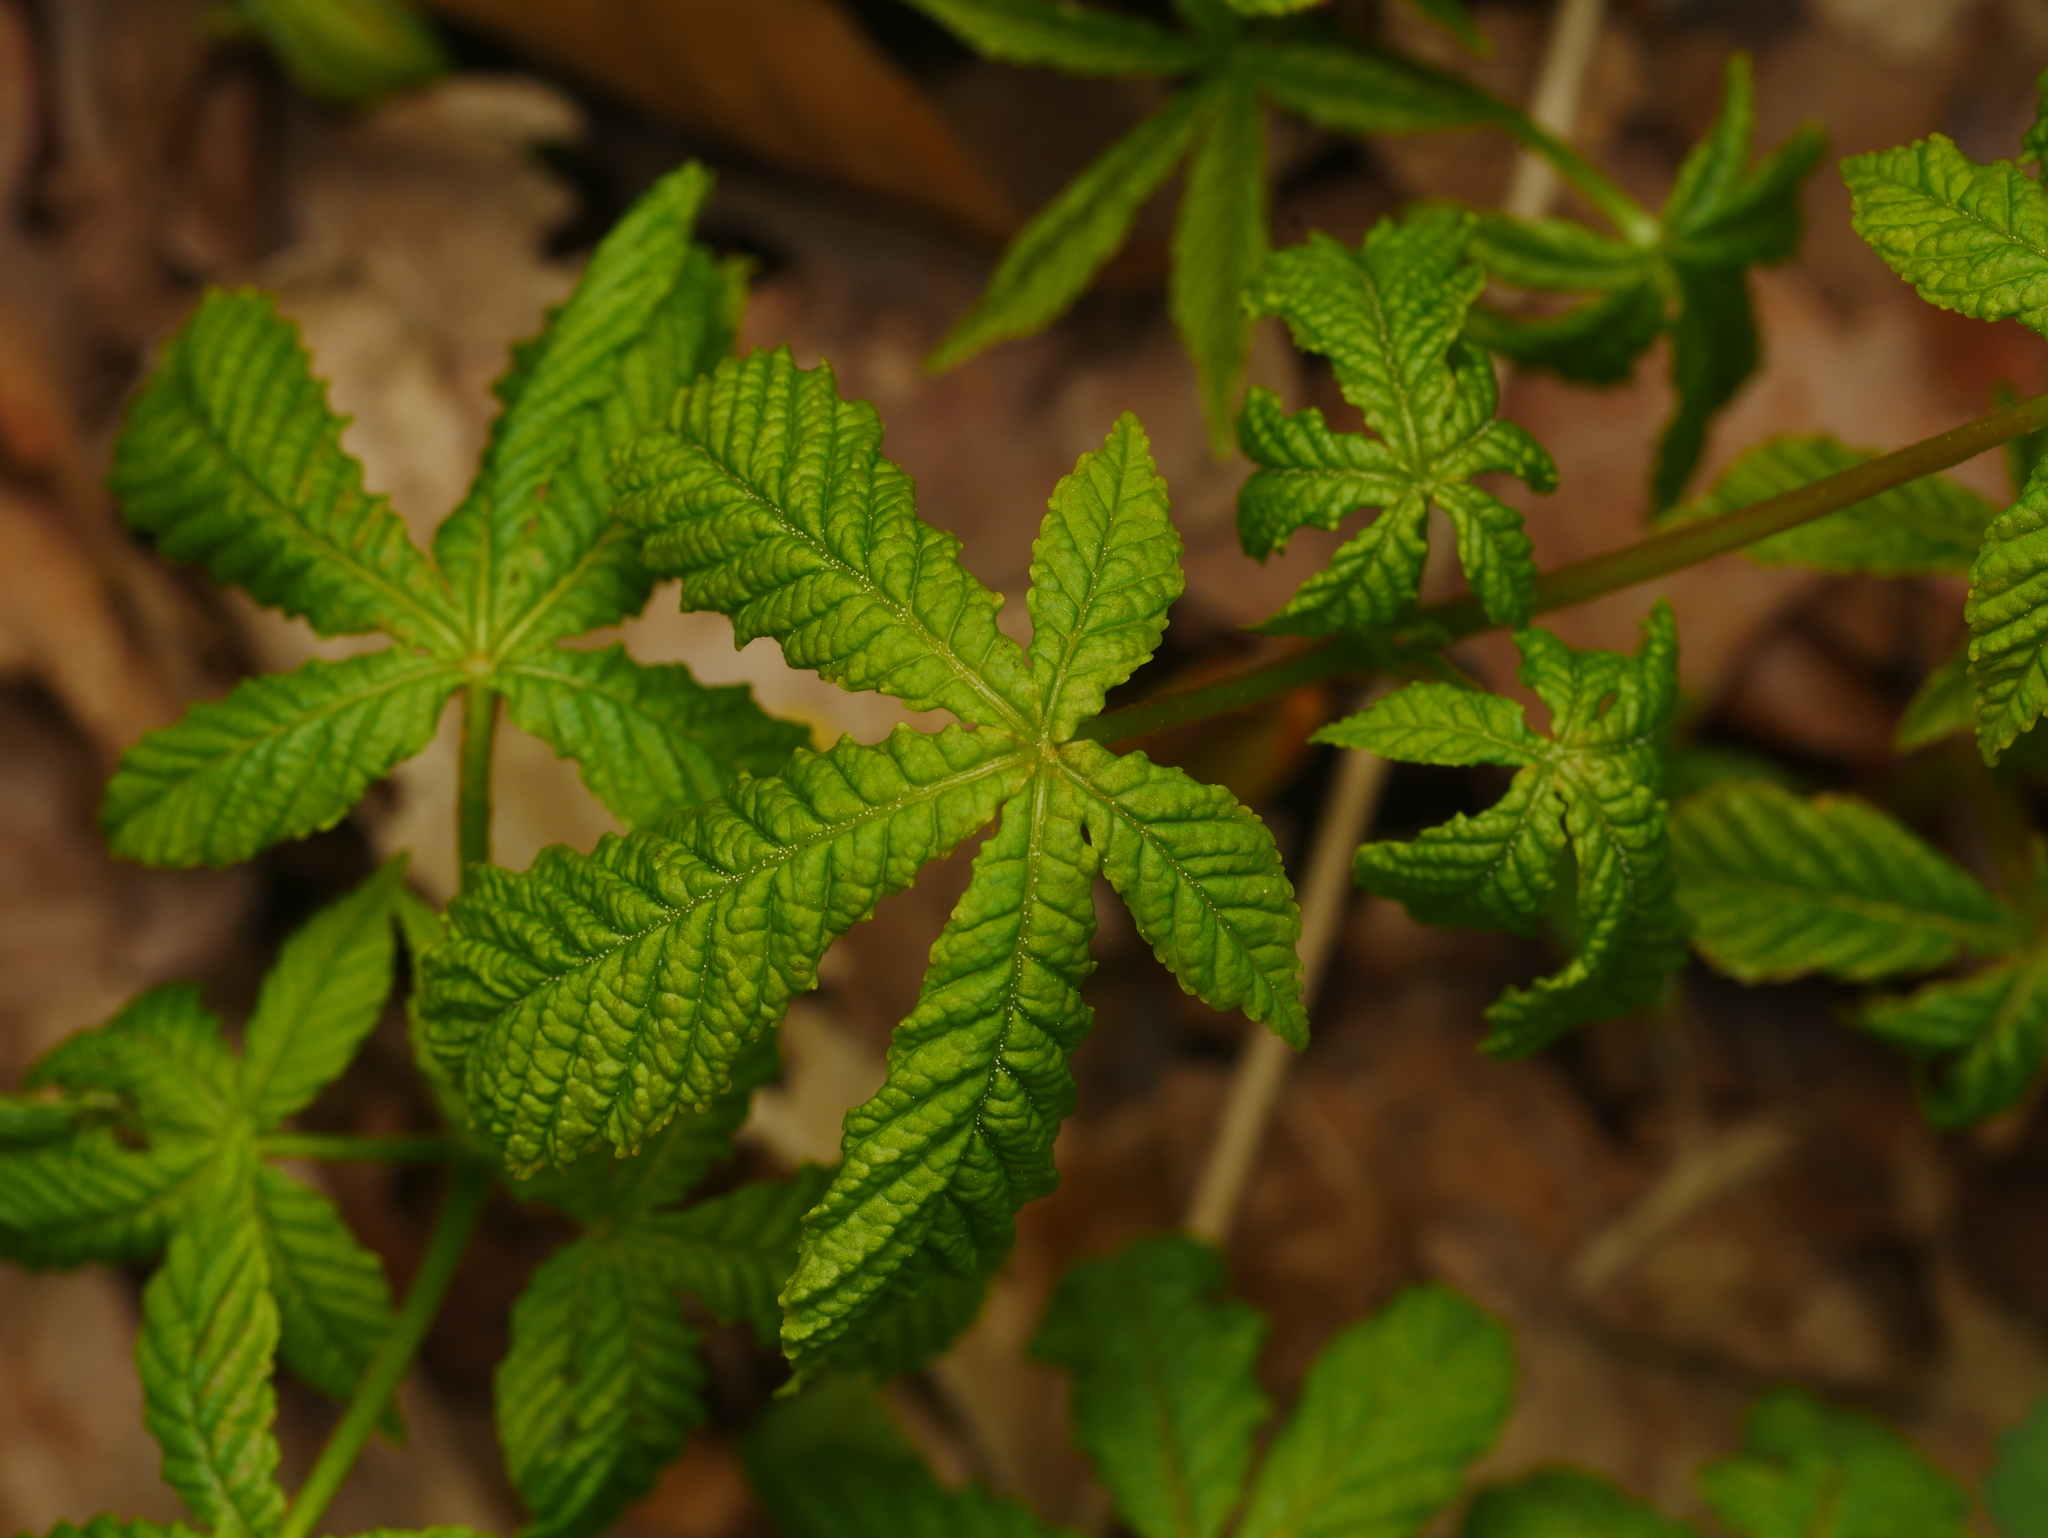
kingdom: Plantae
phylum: Tracheophyta
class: Magnoliopsida
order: Sapindales
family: Sapindaceae
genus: Aesculus
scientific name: Aesculus hippocastanum
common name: Horse-chestnut
